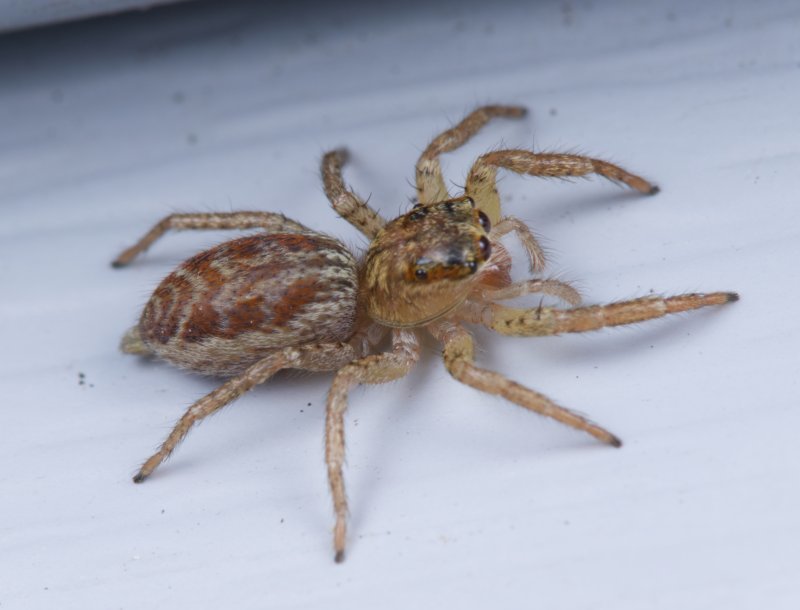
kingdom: Animalia
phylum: Arthropoda
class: Arachnida
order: Araneae
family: Salticidae
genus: Maevia
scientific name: Maevia inclemens
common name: Dimorphic jumper
